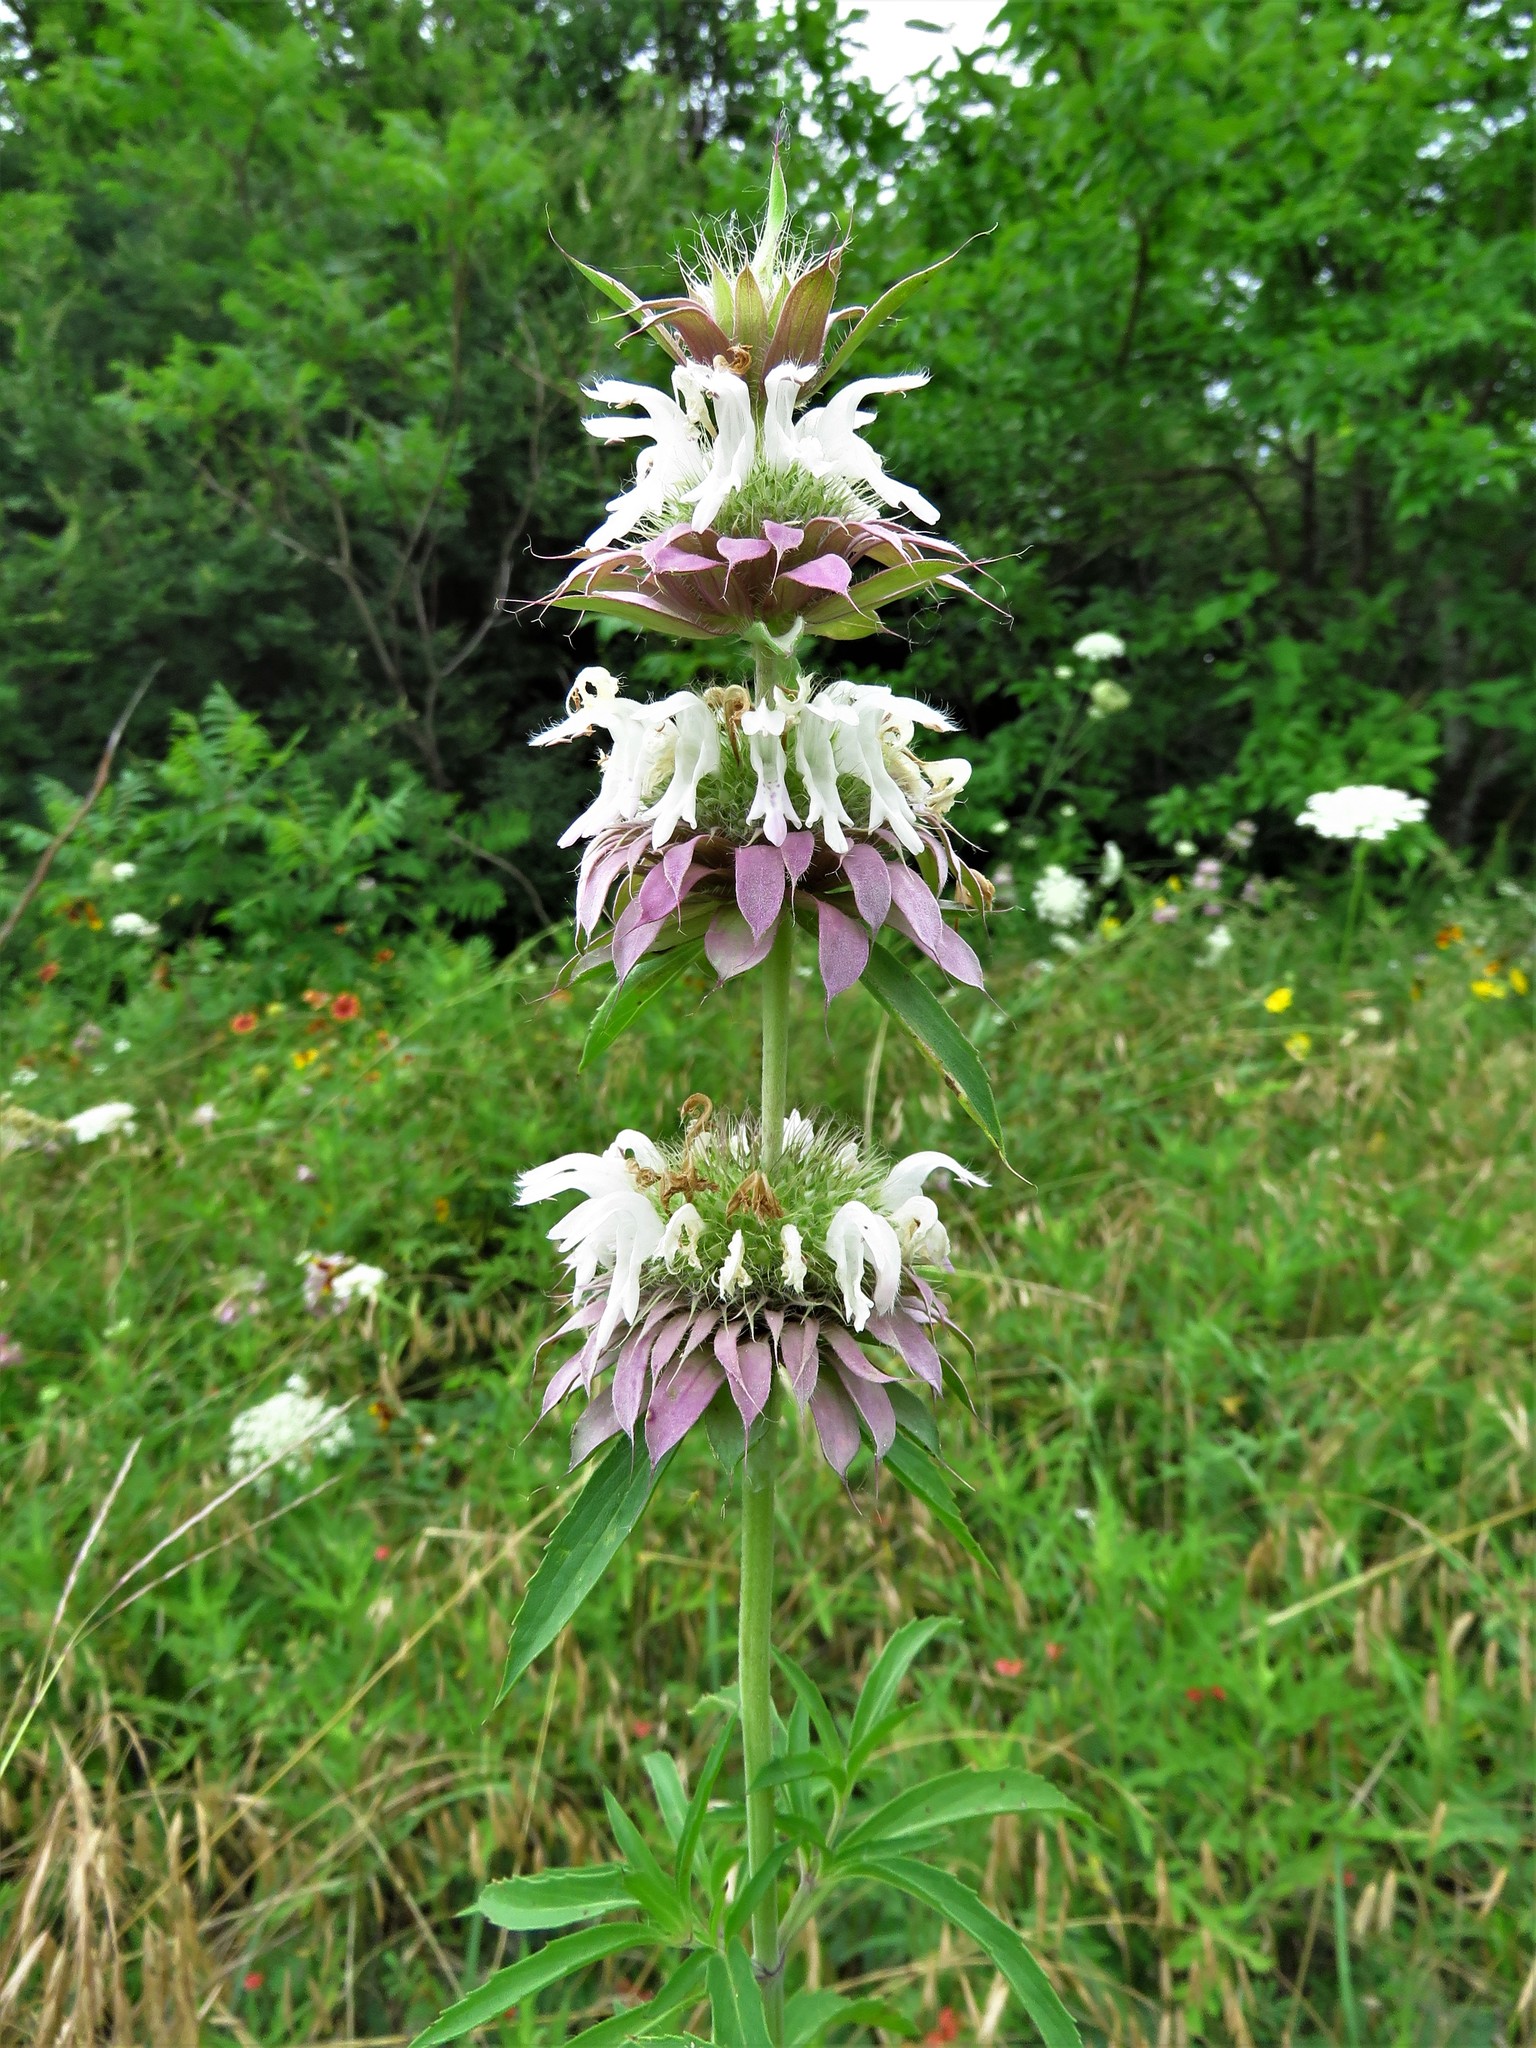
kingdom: Plantae
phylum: Tracheophyta
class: Magnoliopsida
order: Lamiales
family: Lamiaceae
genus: Monarda
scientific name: Monarda citriodora
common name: Lemon beebalm
